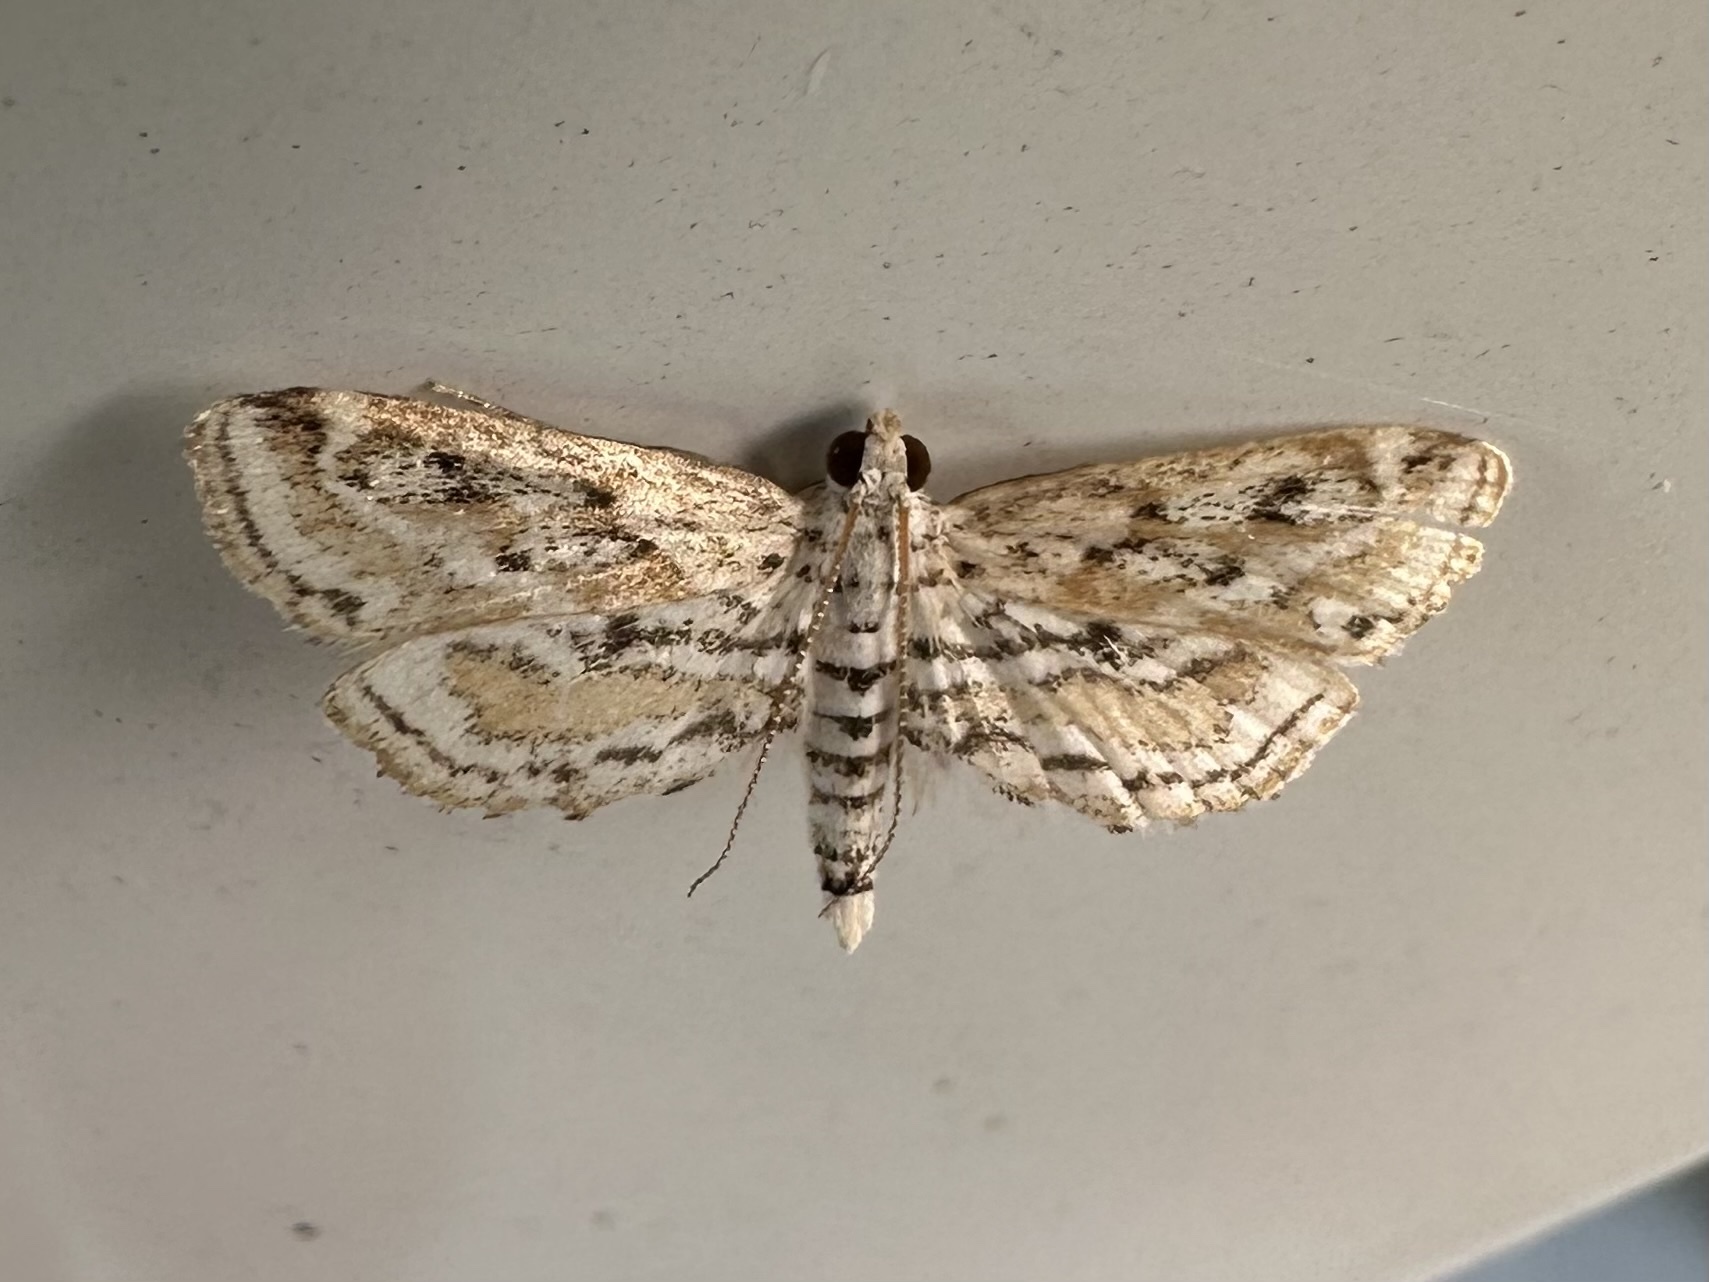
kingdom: Animalia
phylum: Arthropoda
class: Insecta
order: Lepidoptera
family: Crambidae
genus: Parapoynx
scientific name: Parapoynx allionealis
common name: Bladderwort casemaker
